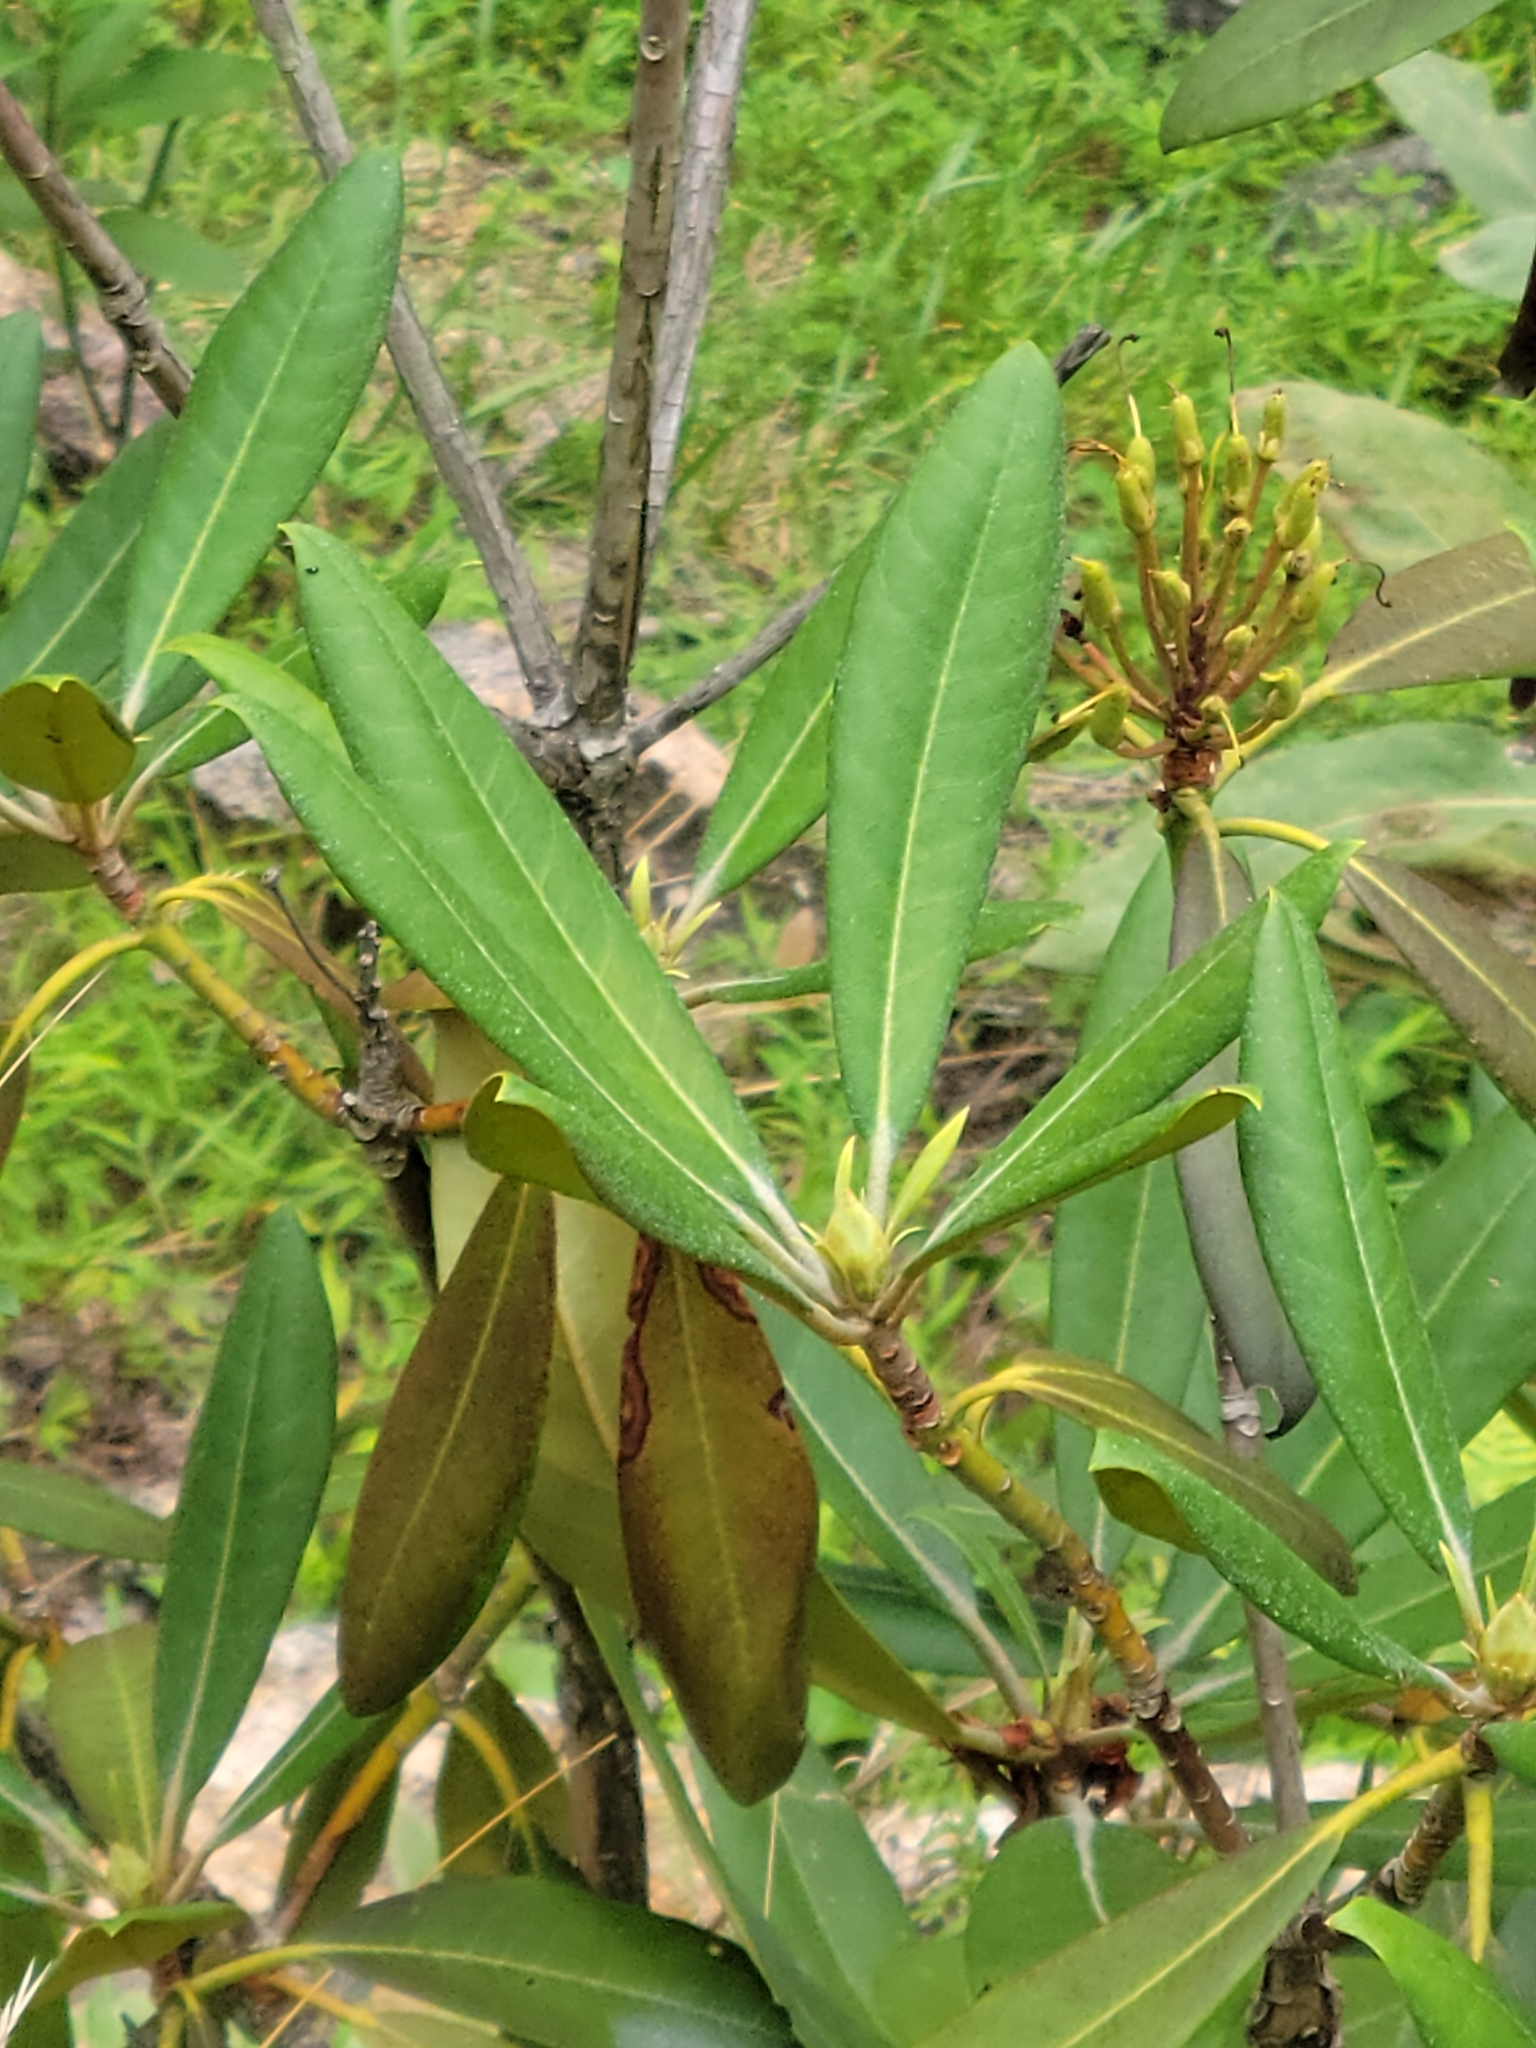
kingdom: Plantae
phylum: Tracheophyta
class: Magnoliopsida
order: Ericales
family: Ericaceae
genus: Rhododendron
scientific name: Rhododendron maximum
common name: Great rhododendron
